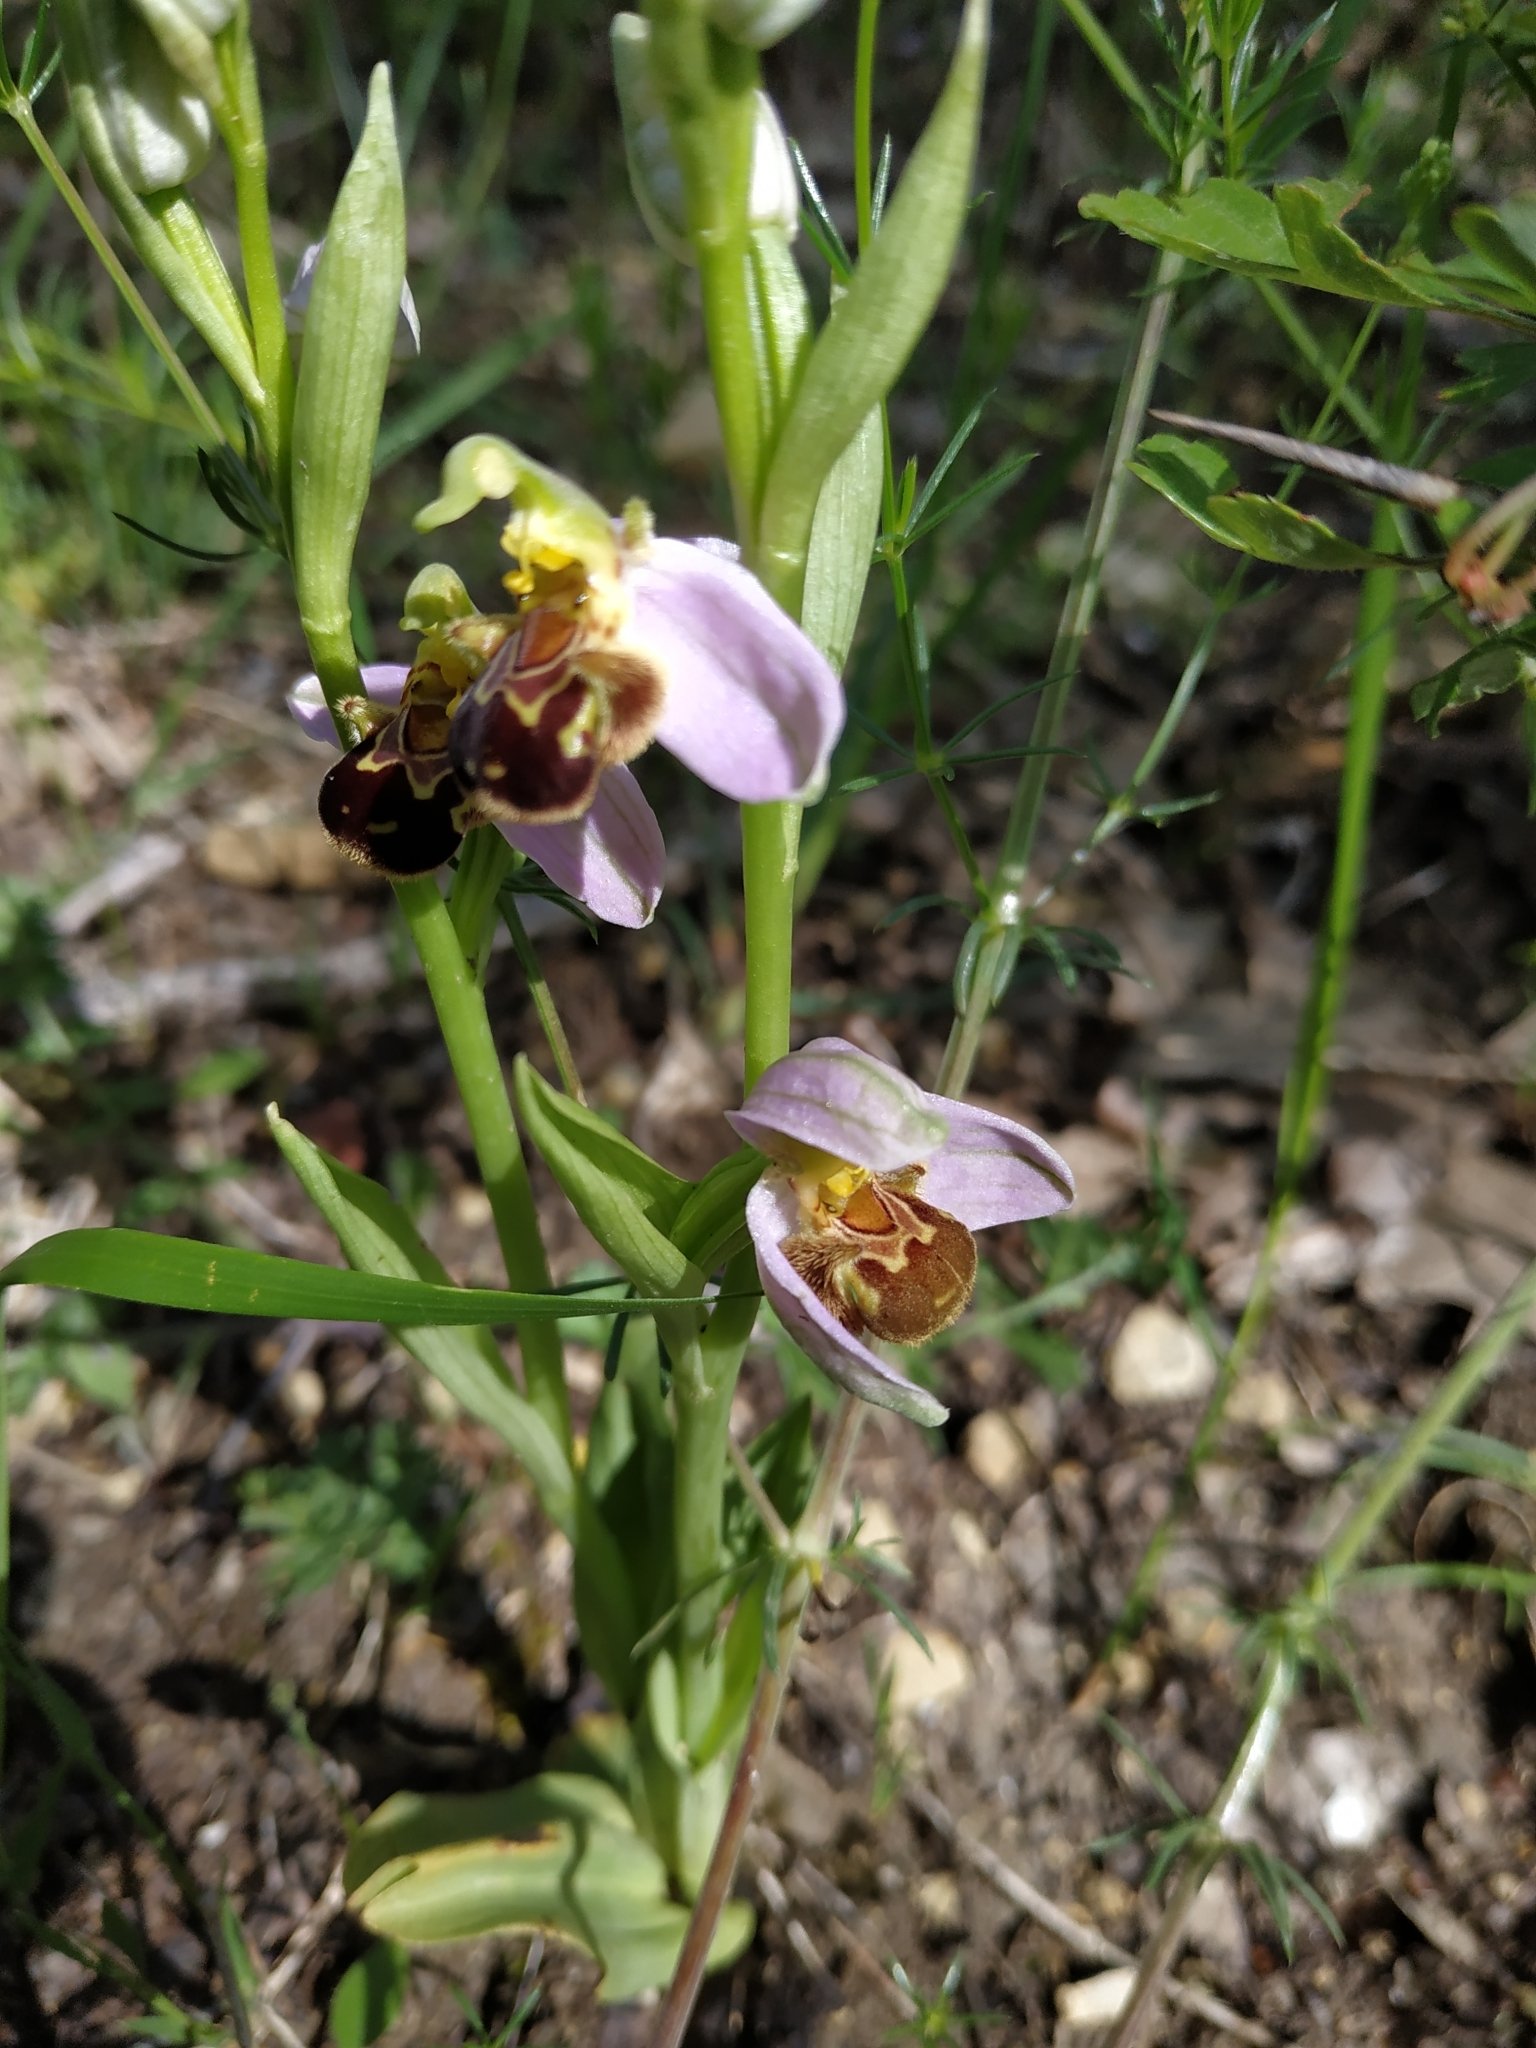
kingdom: Plantae
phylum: Tracheophyta
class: Liliopsida
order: Asparagales
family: Orchidaceae
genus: Ophrys
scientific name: Ophrys apifera
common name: Bee orchid
